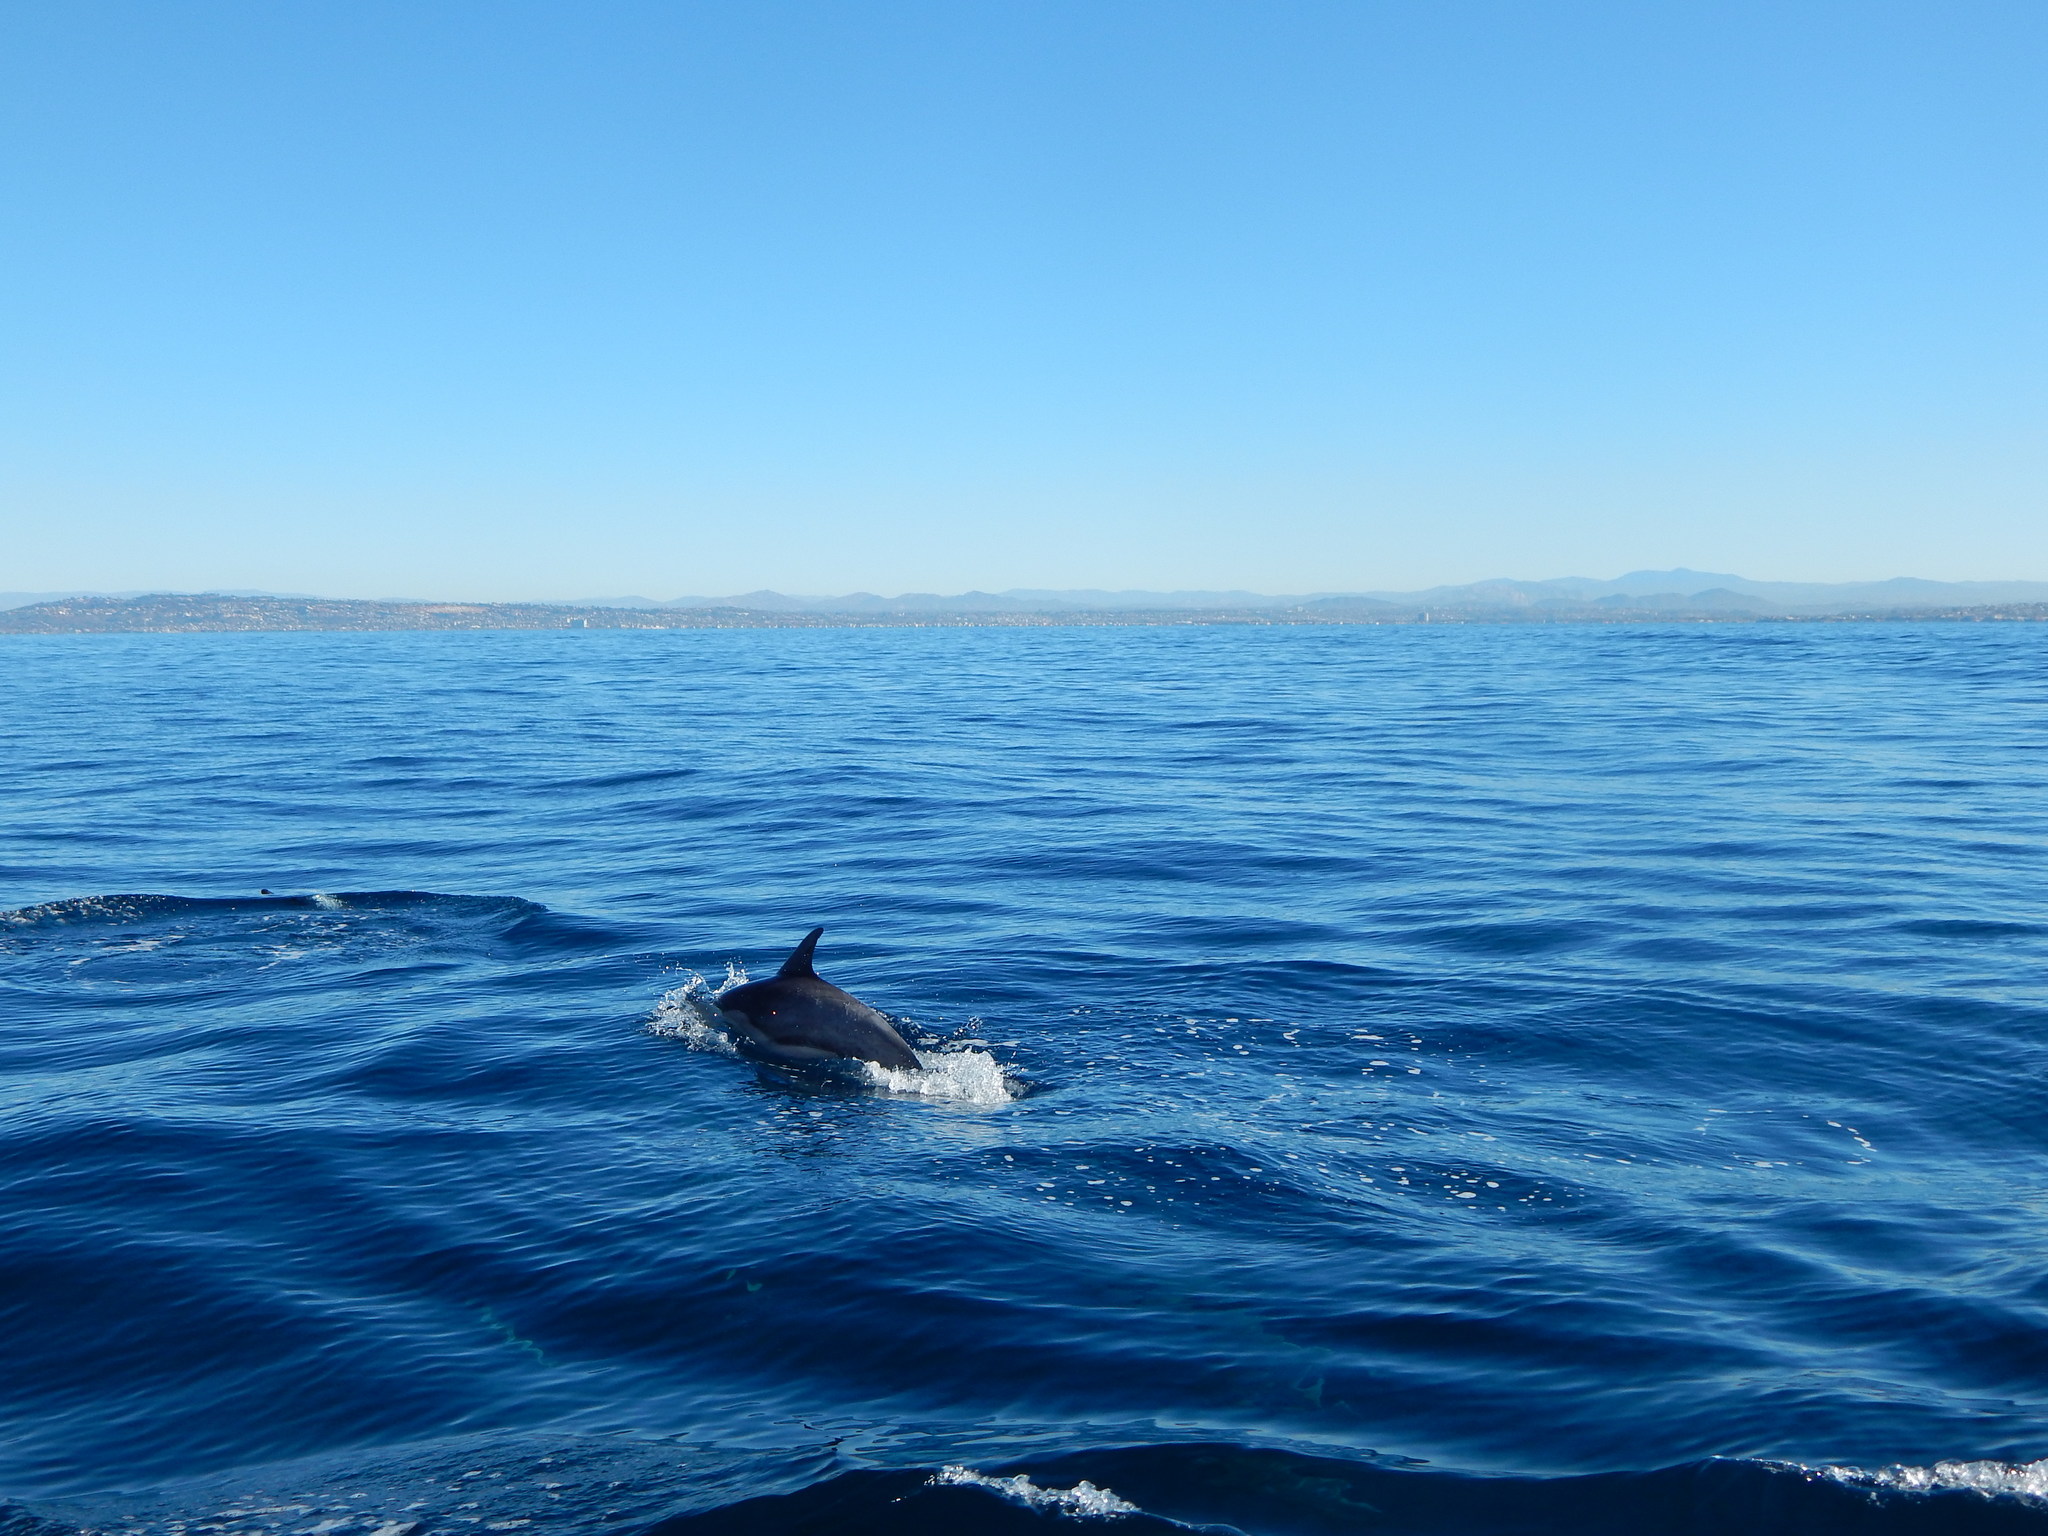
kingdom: Animalia
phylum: Chordata
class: Mammalia
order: Cetacea
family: Delphinidae
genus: Delphinus
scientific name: Delphinus delphis
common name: Common dolphin
